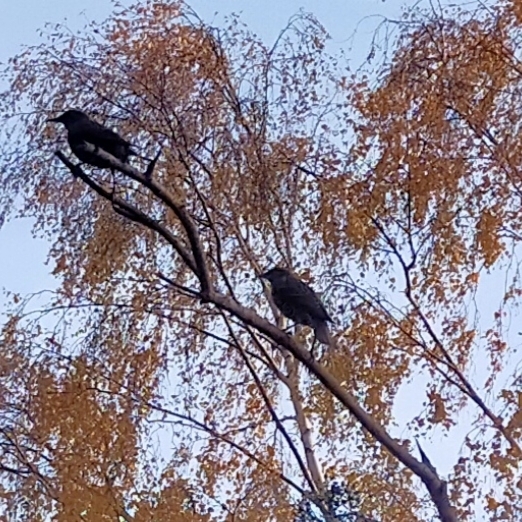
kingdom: Animalia
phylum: Chordata
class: Aves
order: Passeriformes
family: Sturnidae
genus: Sturnus
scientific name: Sturnus vulgaris
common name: Common starling
